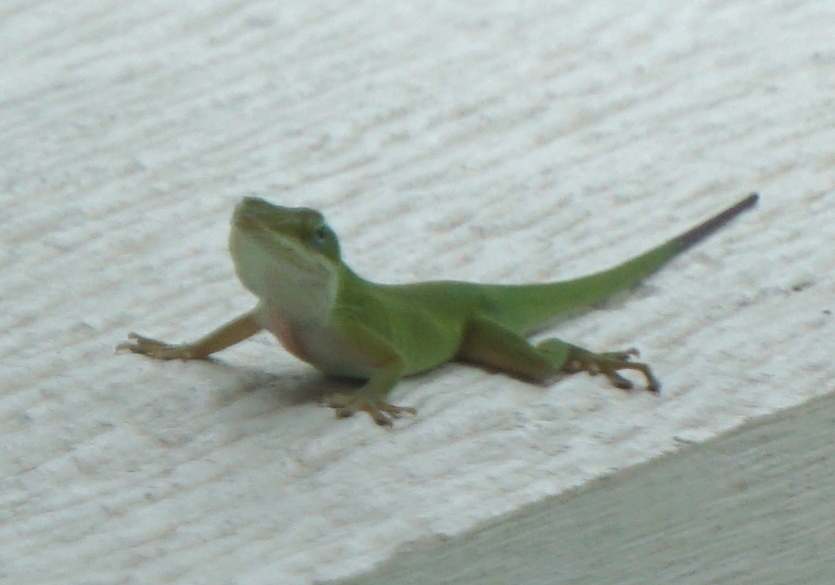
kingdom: Animalia
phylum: Chordata
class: Squamata
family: Dactyloidae
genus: Anolis
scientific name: Anolis carolinensis
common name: Green anole
